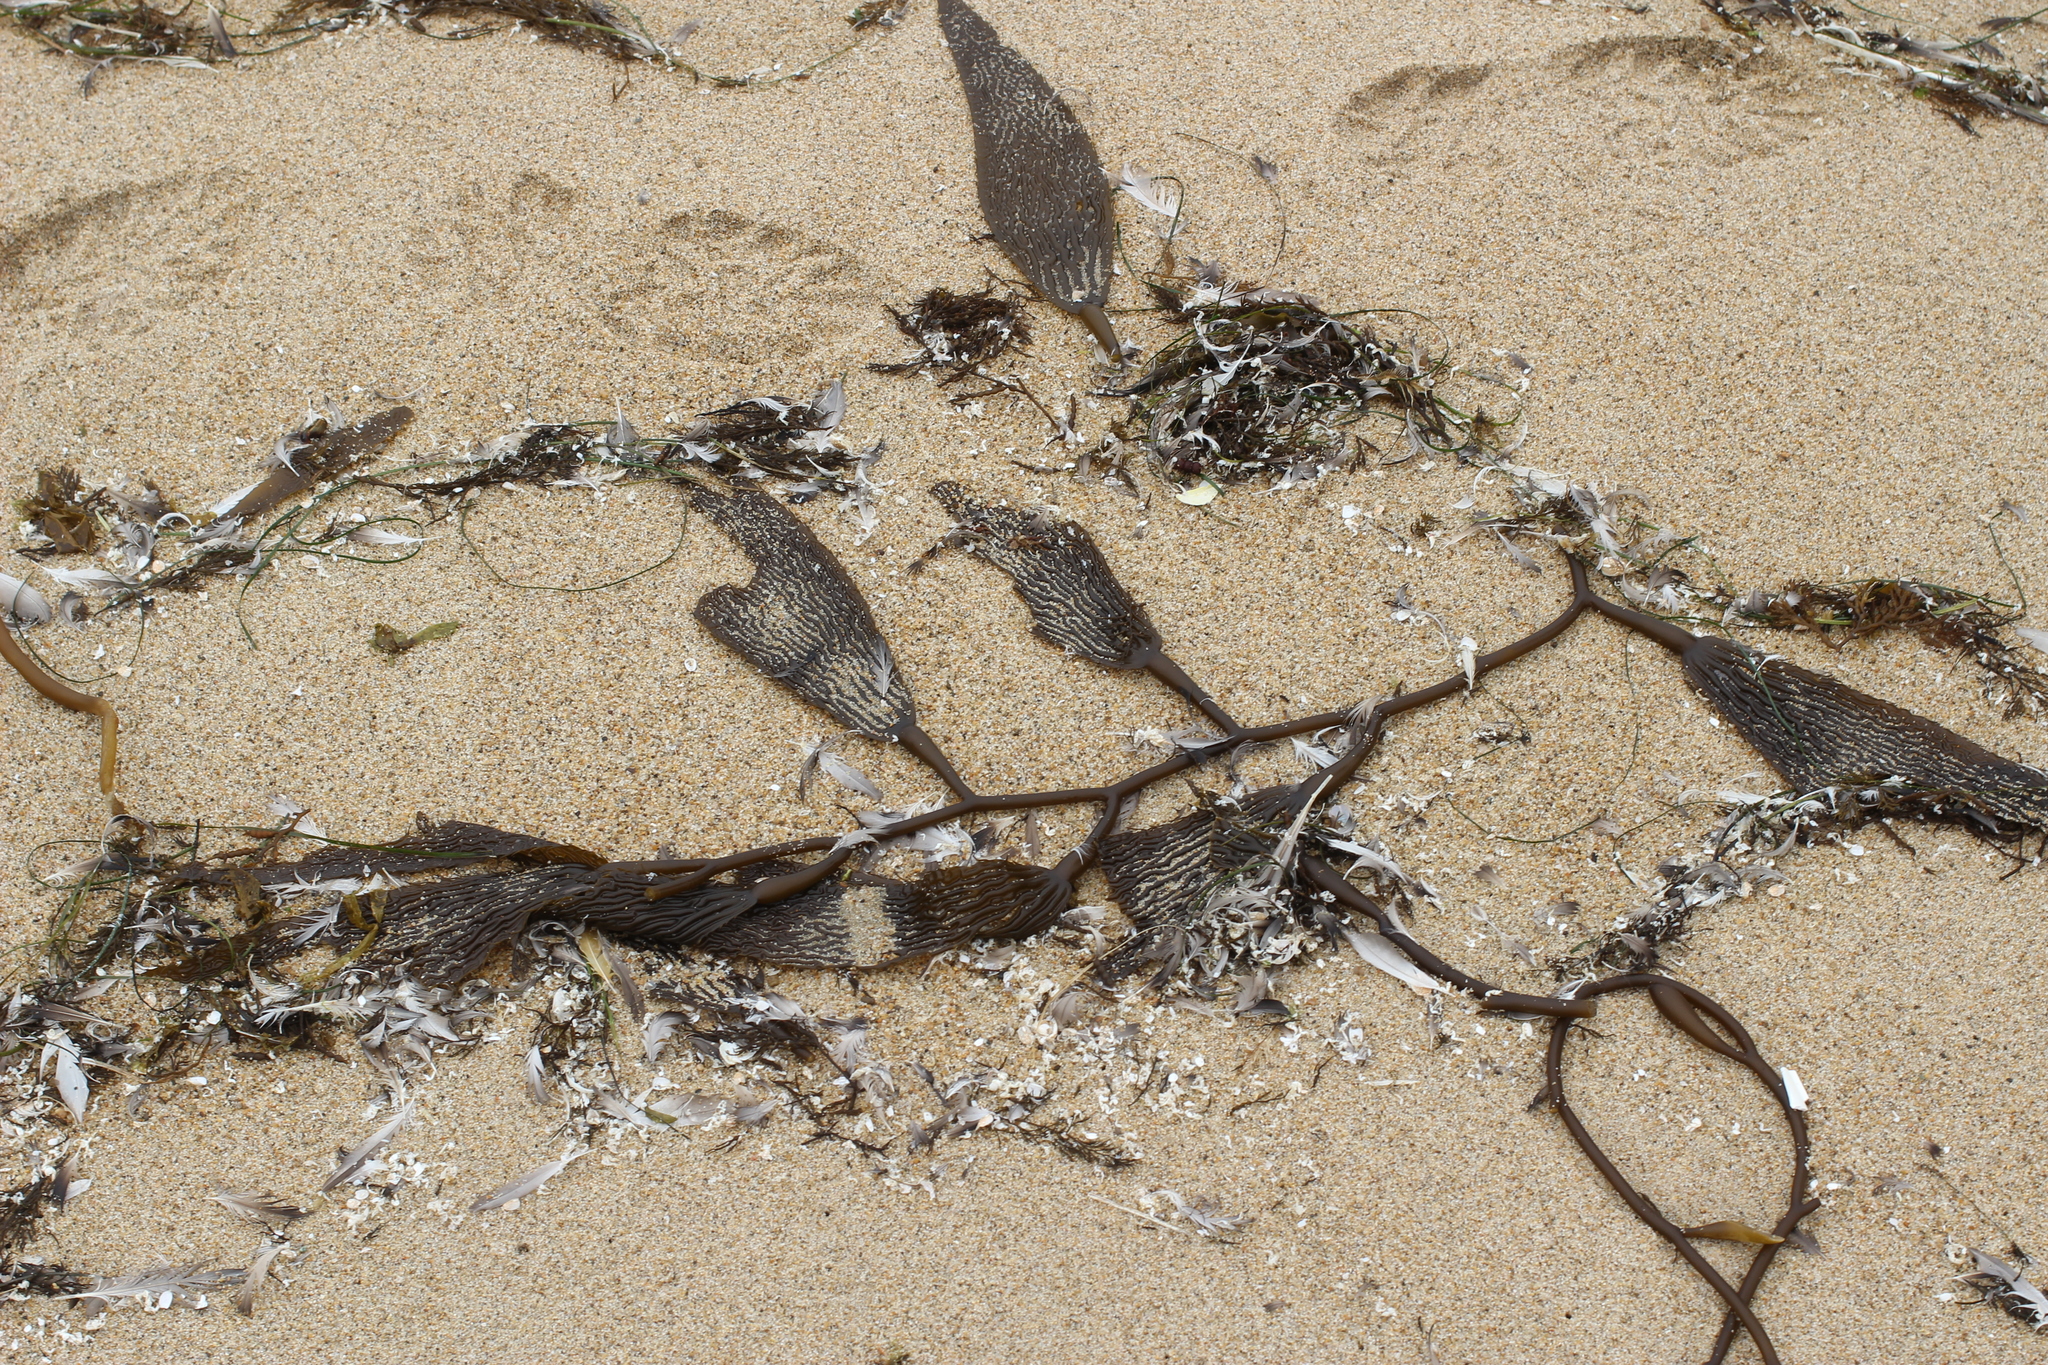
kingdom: Chromista
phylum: Ochrophyta
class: Phaeophyceae
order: Laminariales
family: Laminariaceae
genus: Macrocystis
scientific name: Macrocystis pyrifera
